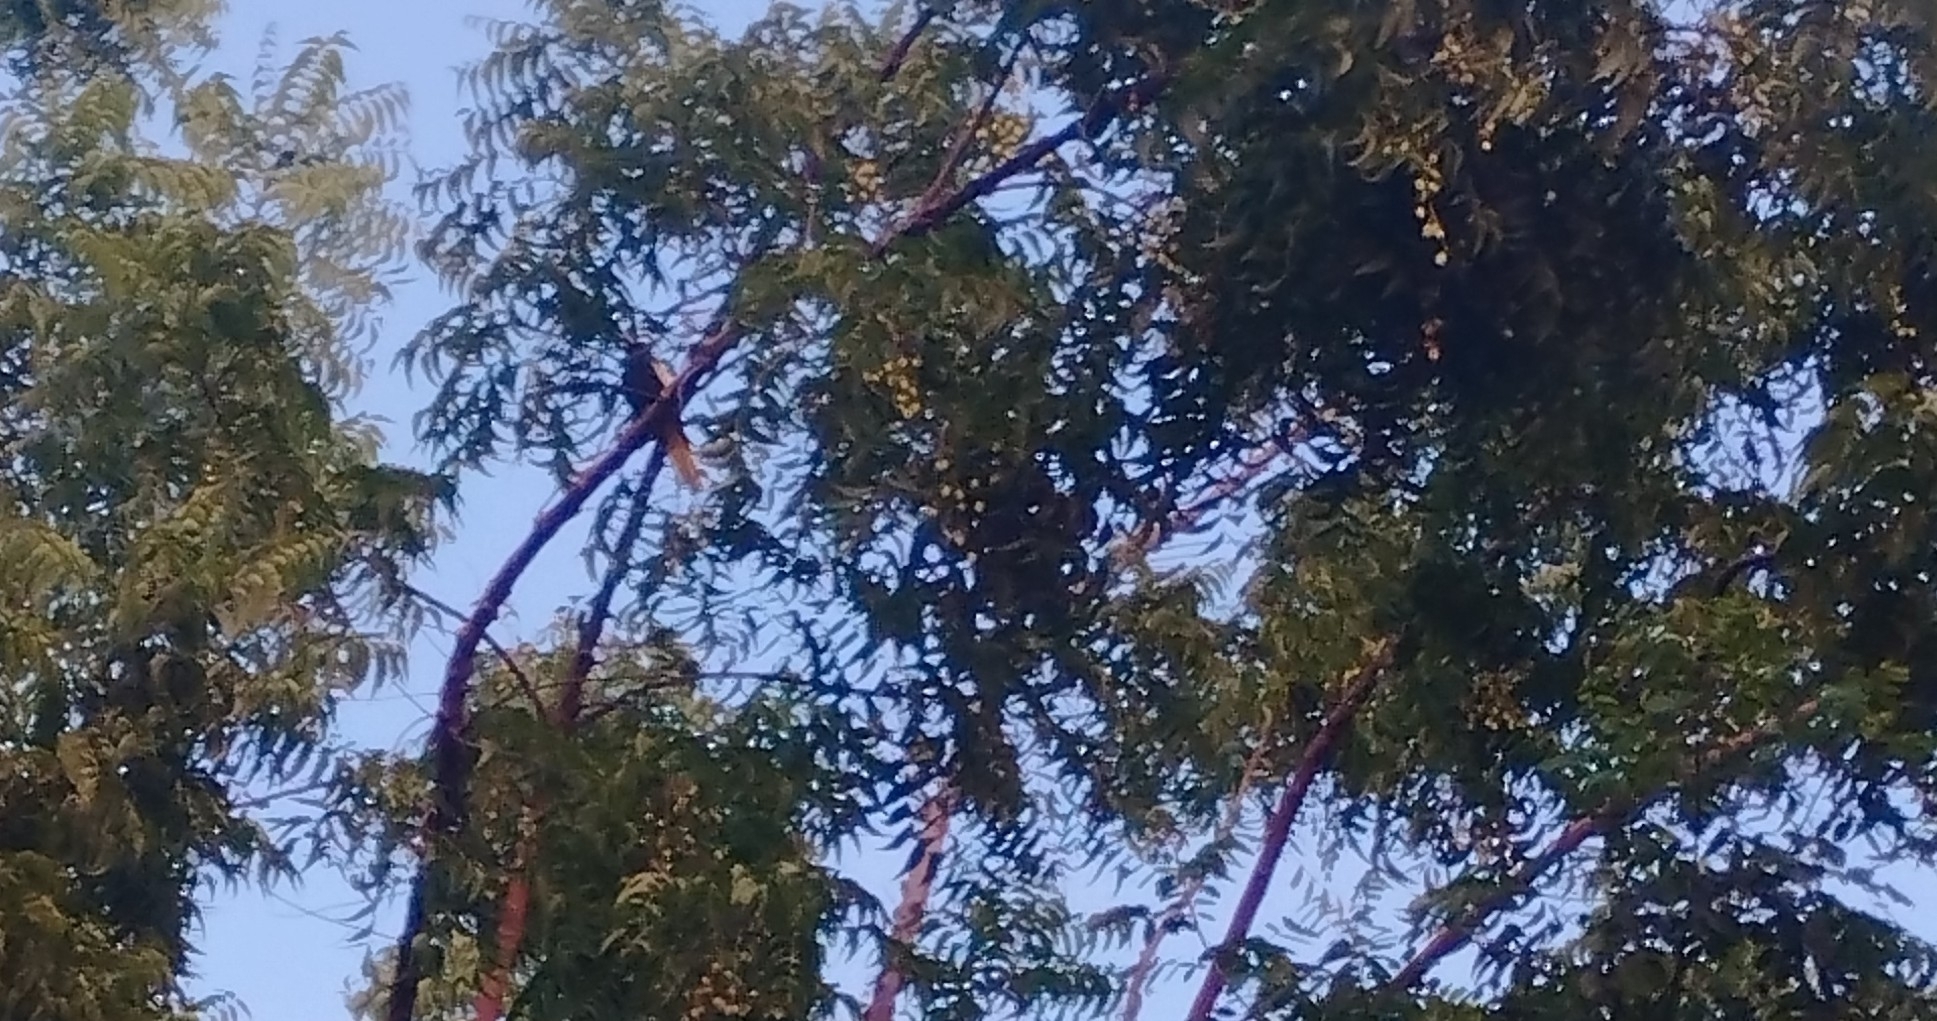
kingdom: Animalia
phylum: Chordata
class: Aves
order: Passeriformes
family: Icteridae
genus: Cacicus
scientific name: Cacicus melanicterus
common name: Yellow-winged cacique
